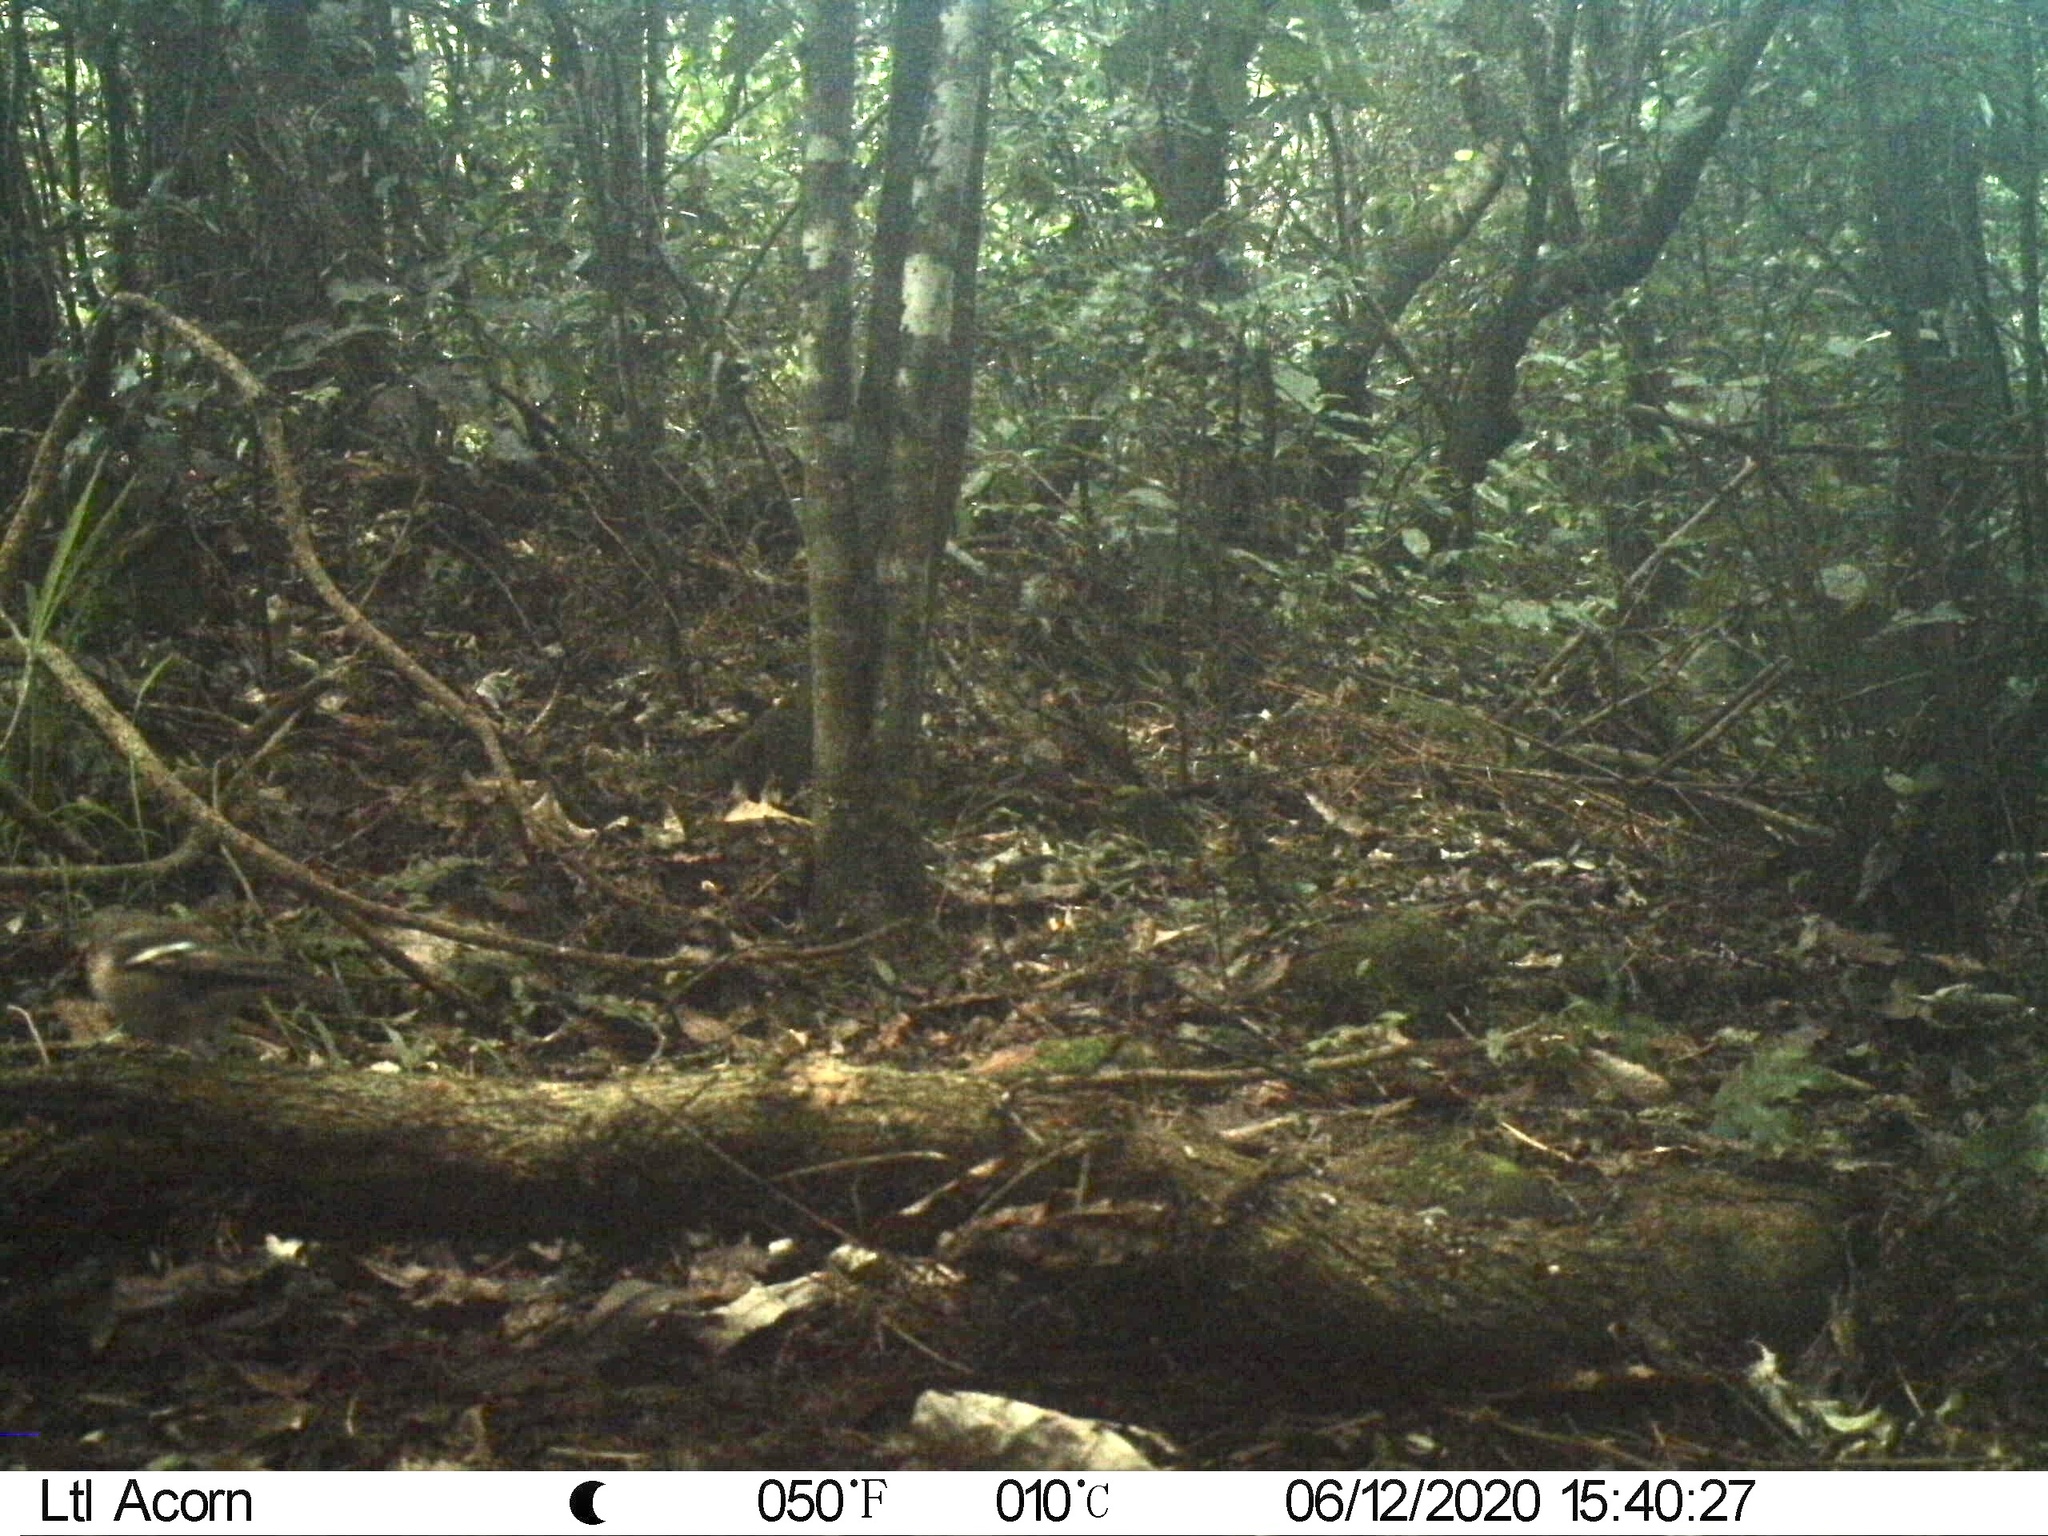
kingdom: Animalia
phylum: Chordata
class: Aves
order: Passeriformes
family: Fringillidae
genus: Fringilla
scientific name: Fringilla coelebs
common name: Common chaffinch
